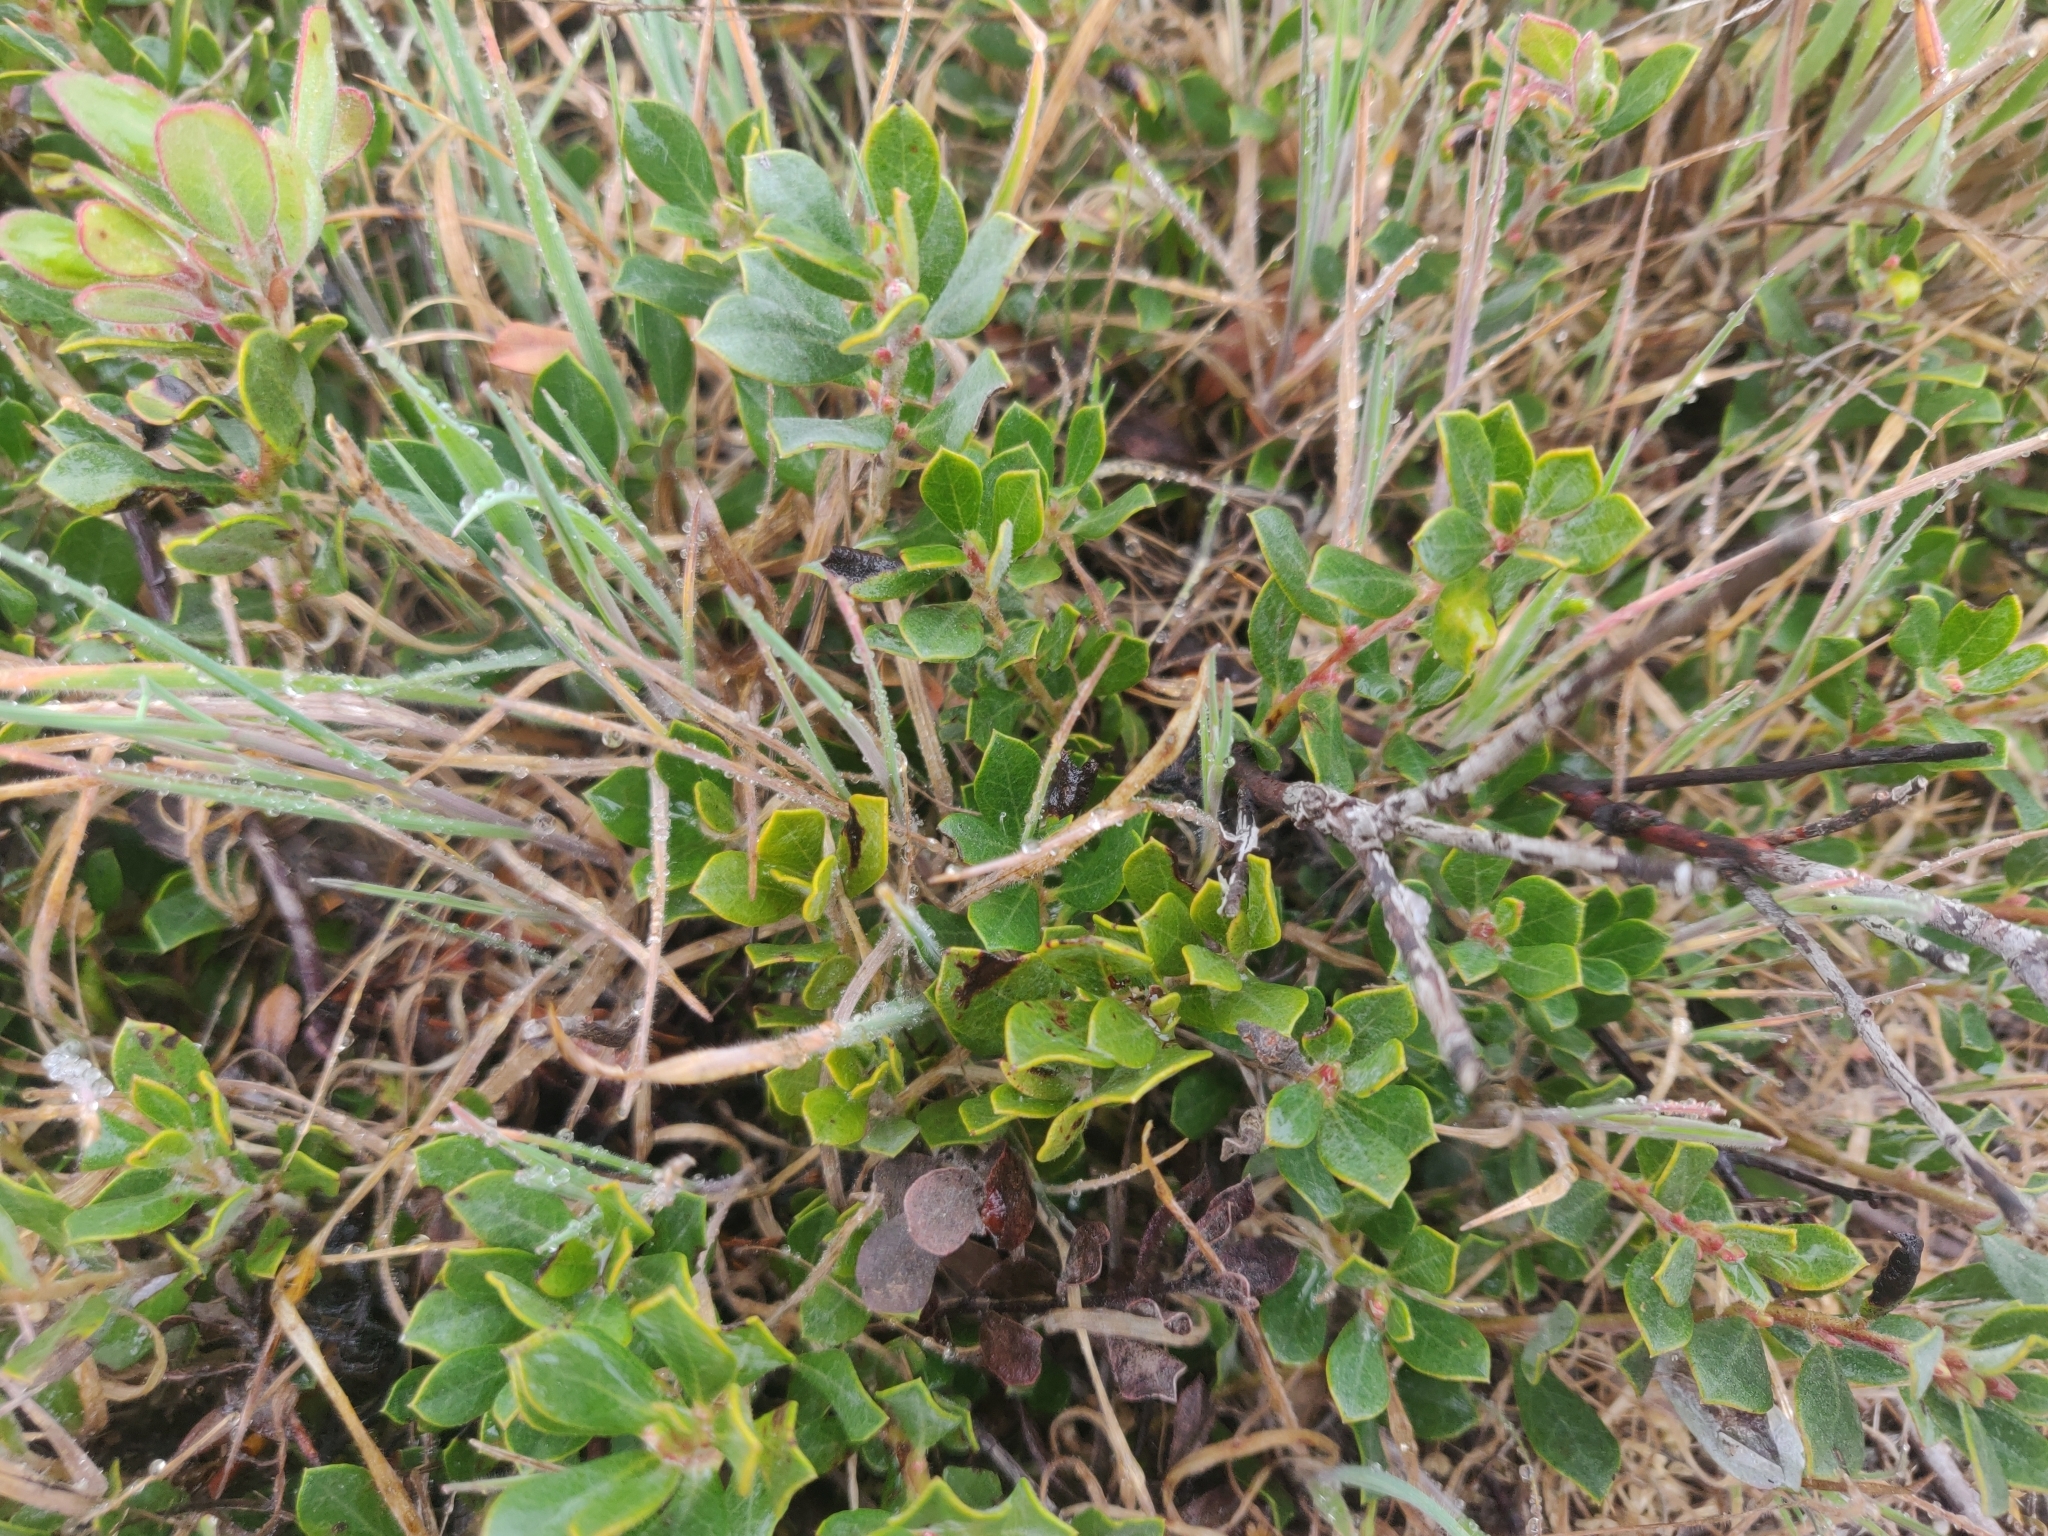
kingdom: Plantae
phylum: Tracheophyta
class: Magnoliopsida
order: Ericales
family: Ericaceae
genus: Arctostaphylos
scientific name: Arctostaphylos pumila
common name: Sandmat manzanita
